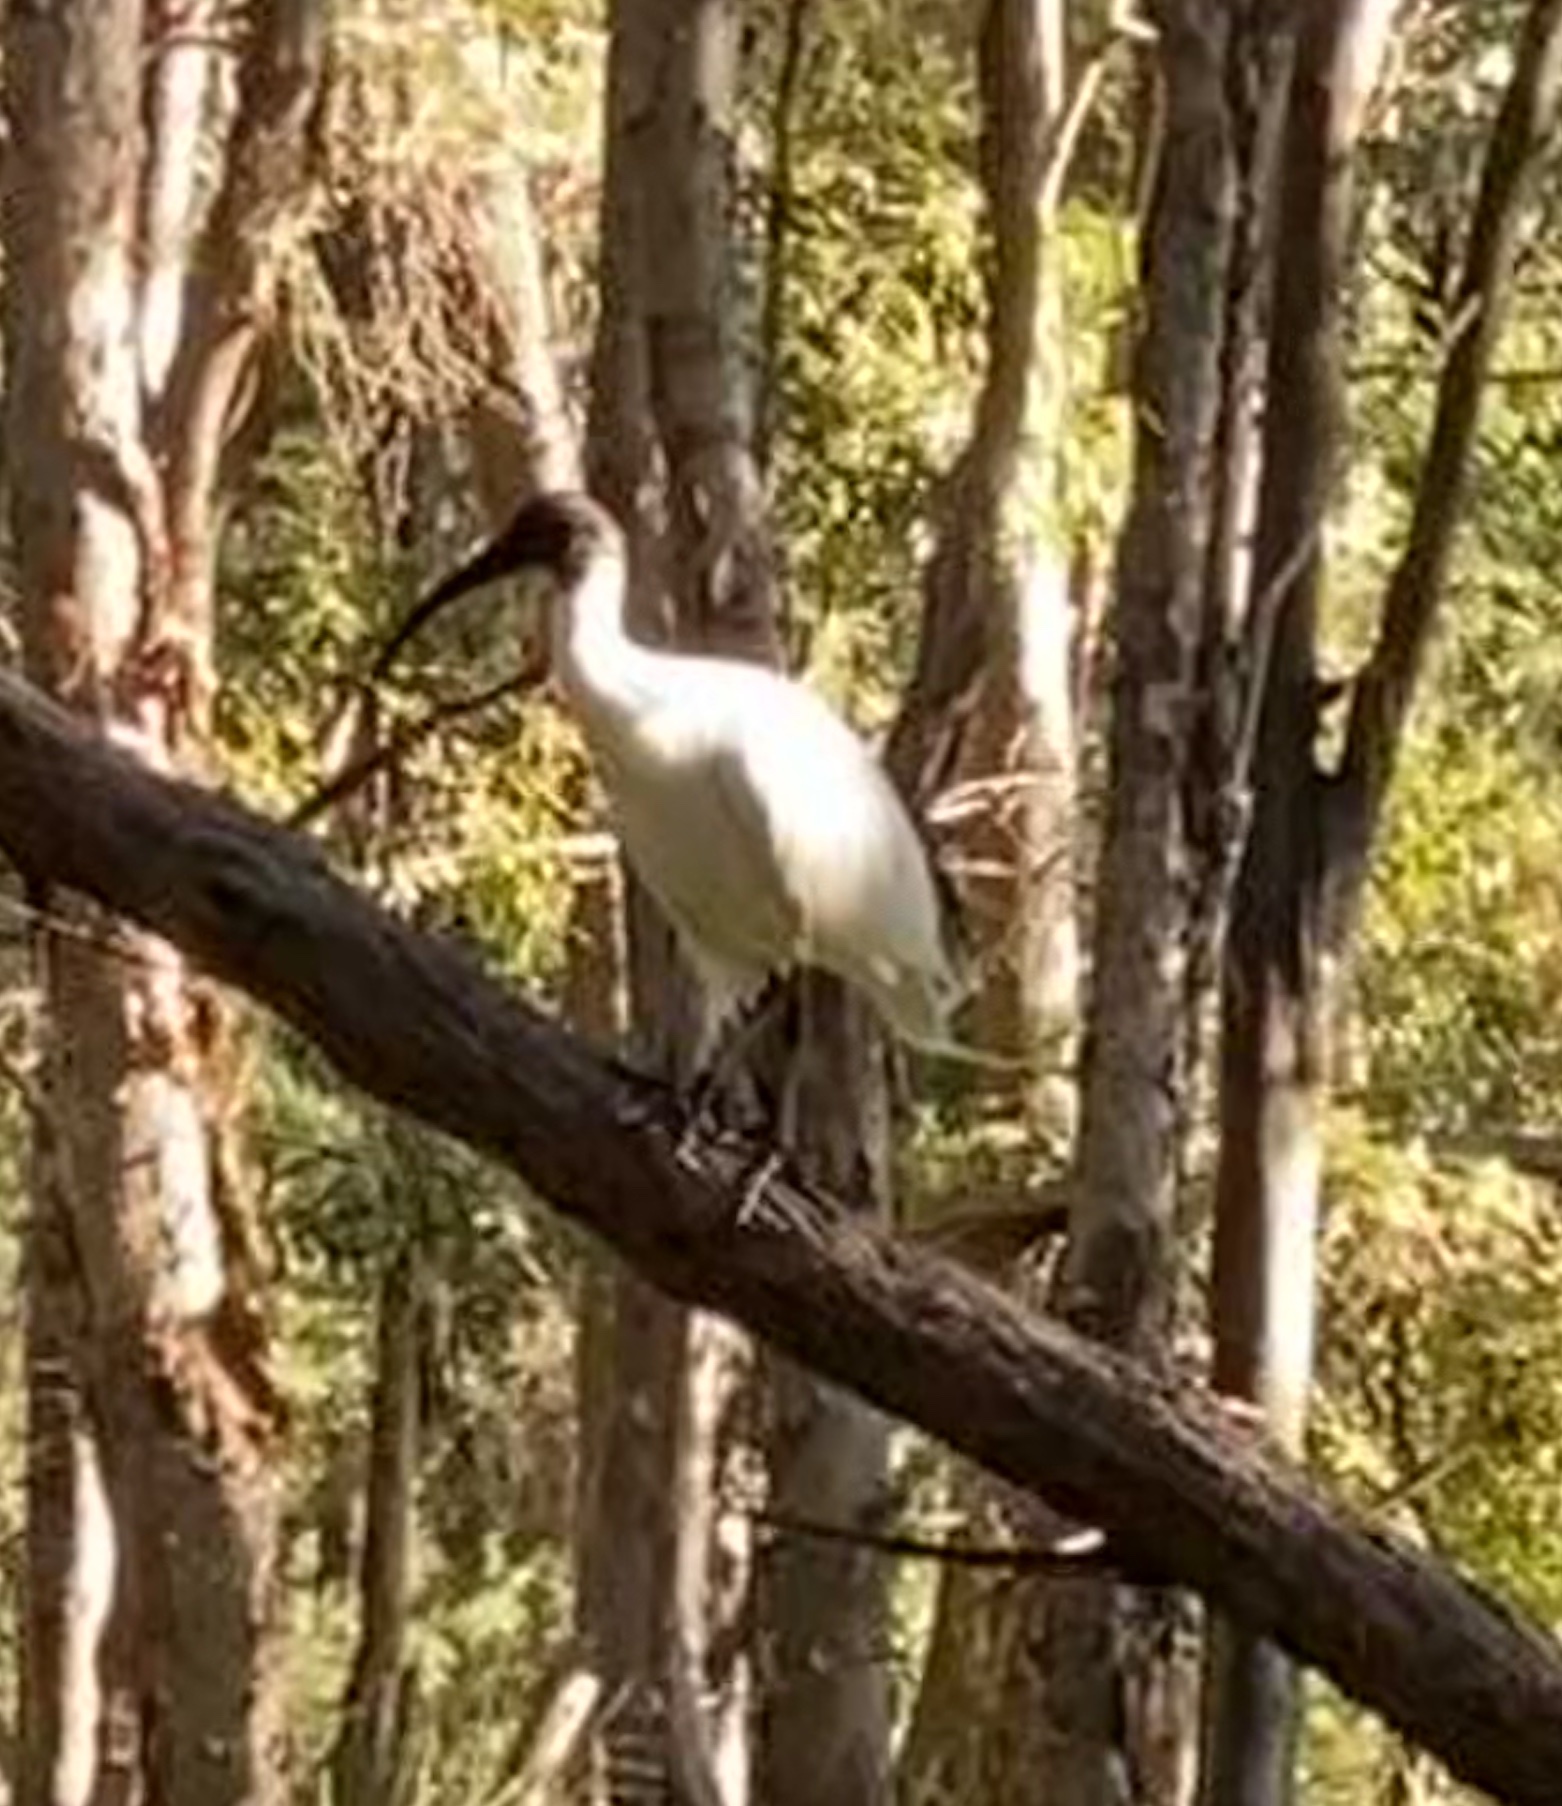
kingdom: Animalia
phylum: Chordata
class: Aves
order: Pelecaniformes
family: Threskiornithidae
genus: Threskiornis
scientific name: Threskiornis molucca
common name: Australian white ibis
